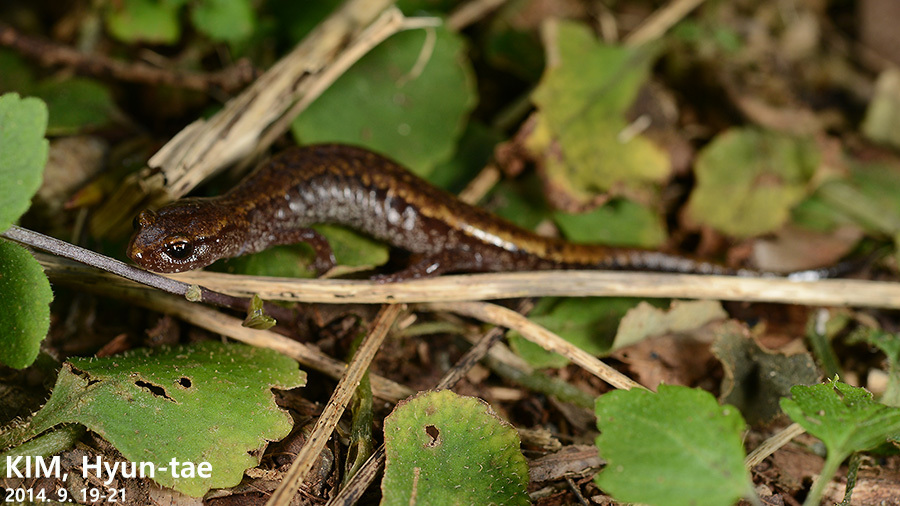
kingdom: Animalia
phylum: Chordata
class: Amphibia
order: Caudata
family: Plethodontidae
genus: Karsenia
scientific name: Karsenia koreana
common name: Korean crevice salamander
